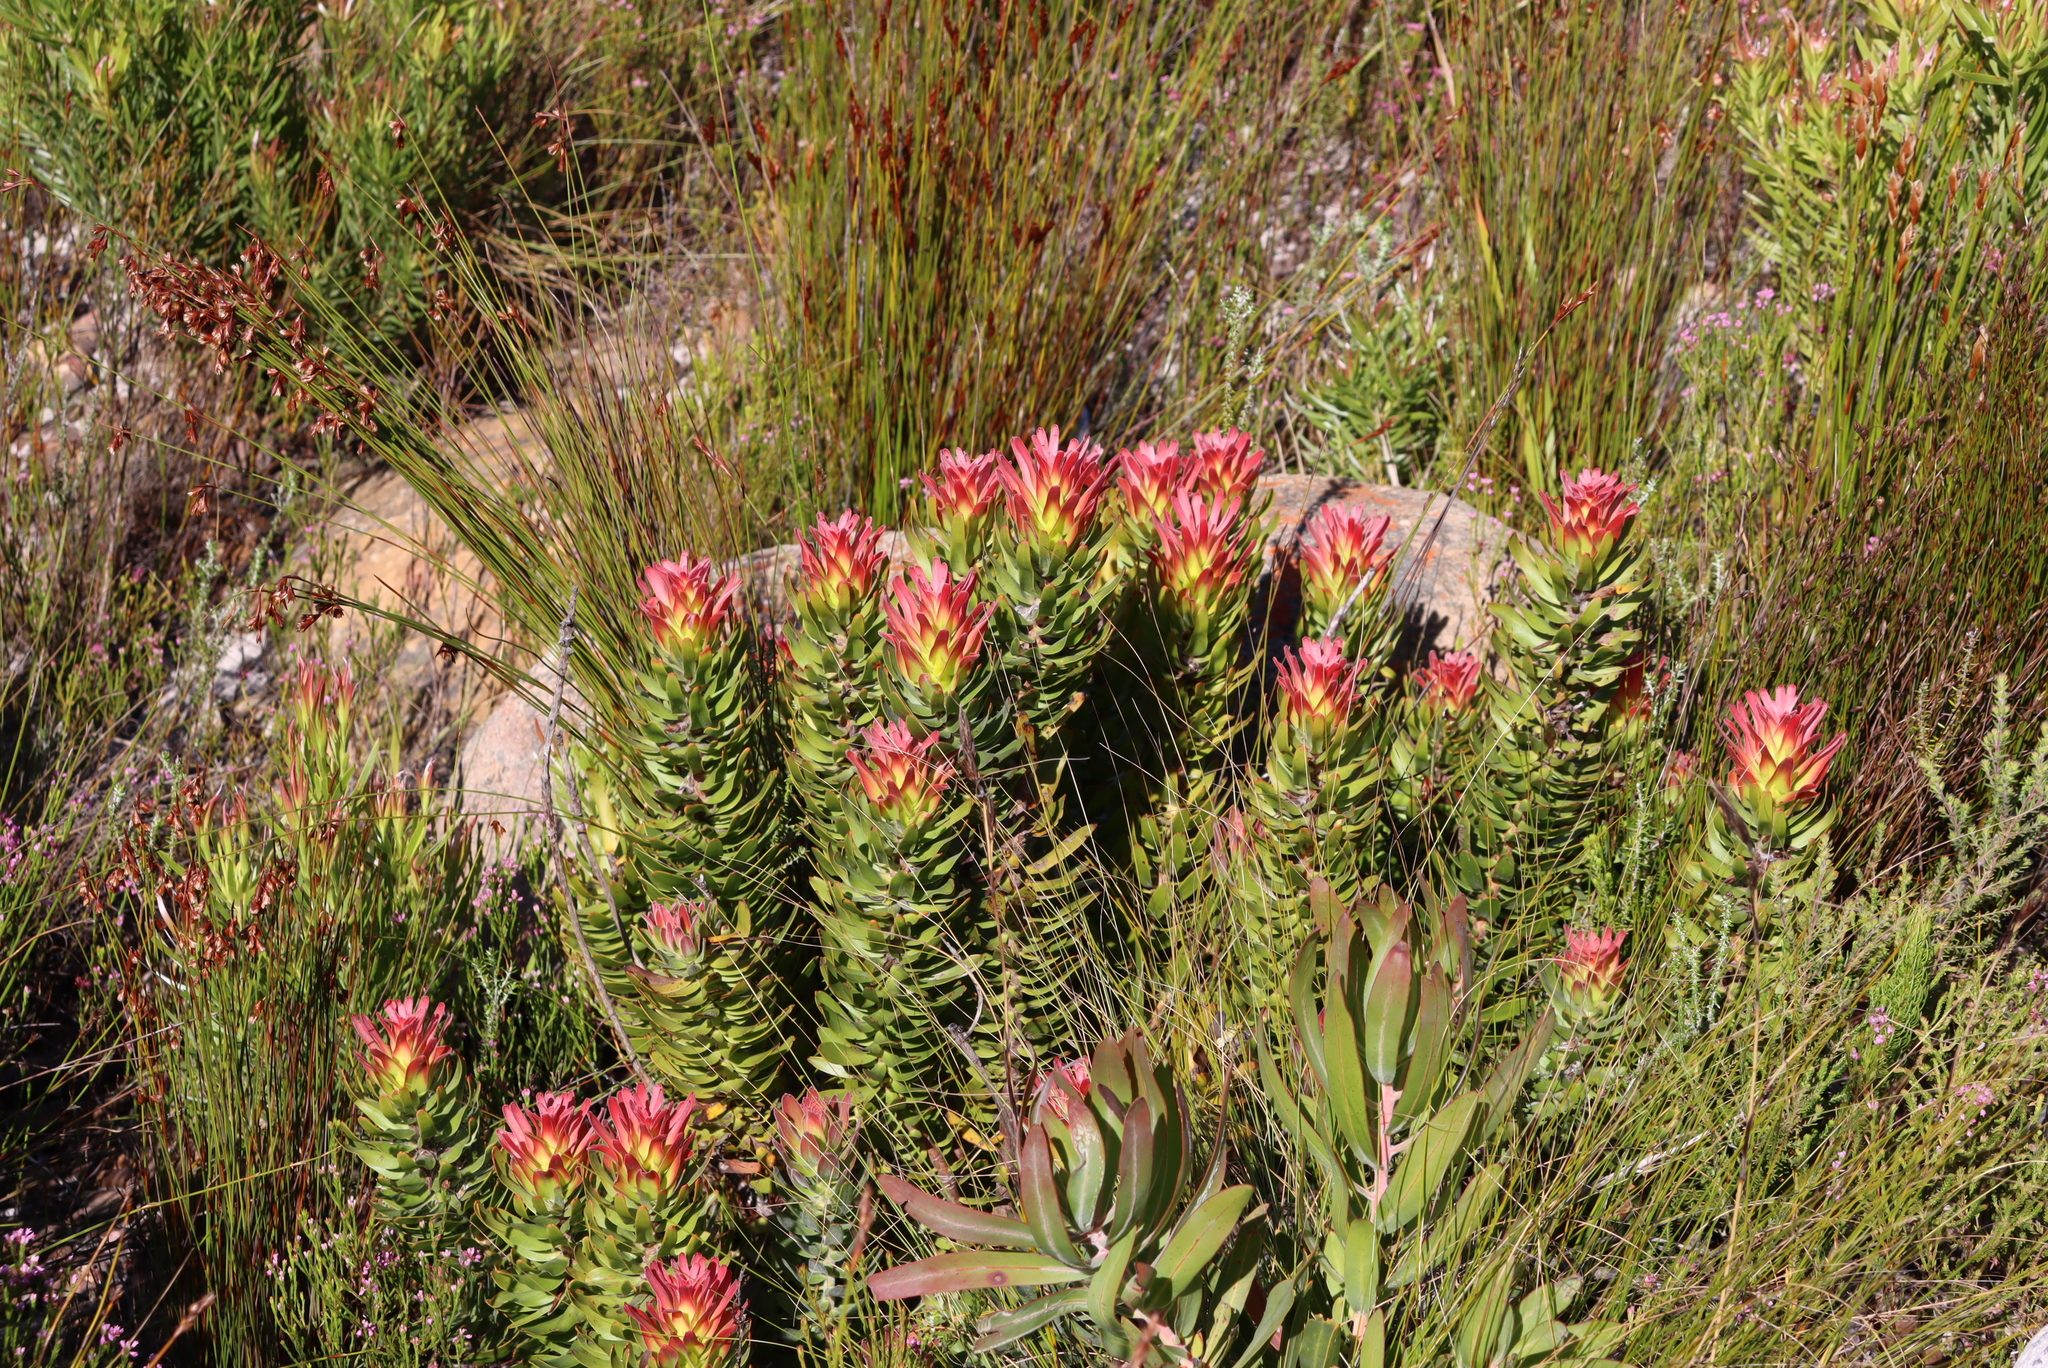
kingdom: Plantae
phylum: Tracheophyta
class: Magnoliopsida
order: Proteales
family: Proteaceae
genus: Mimetes
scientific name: Mimetes cucullatus
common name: Common pagoda
